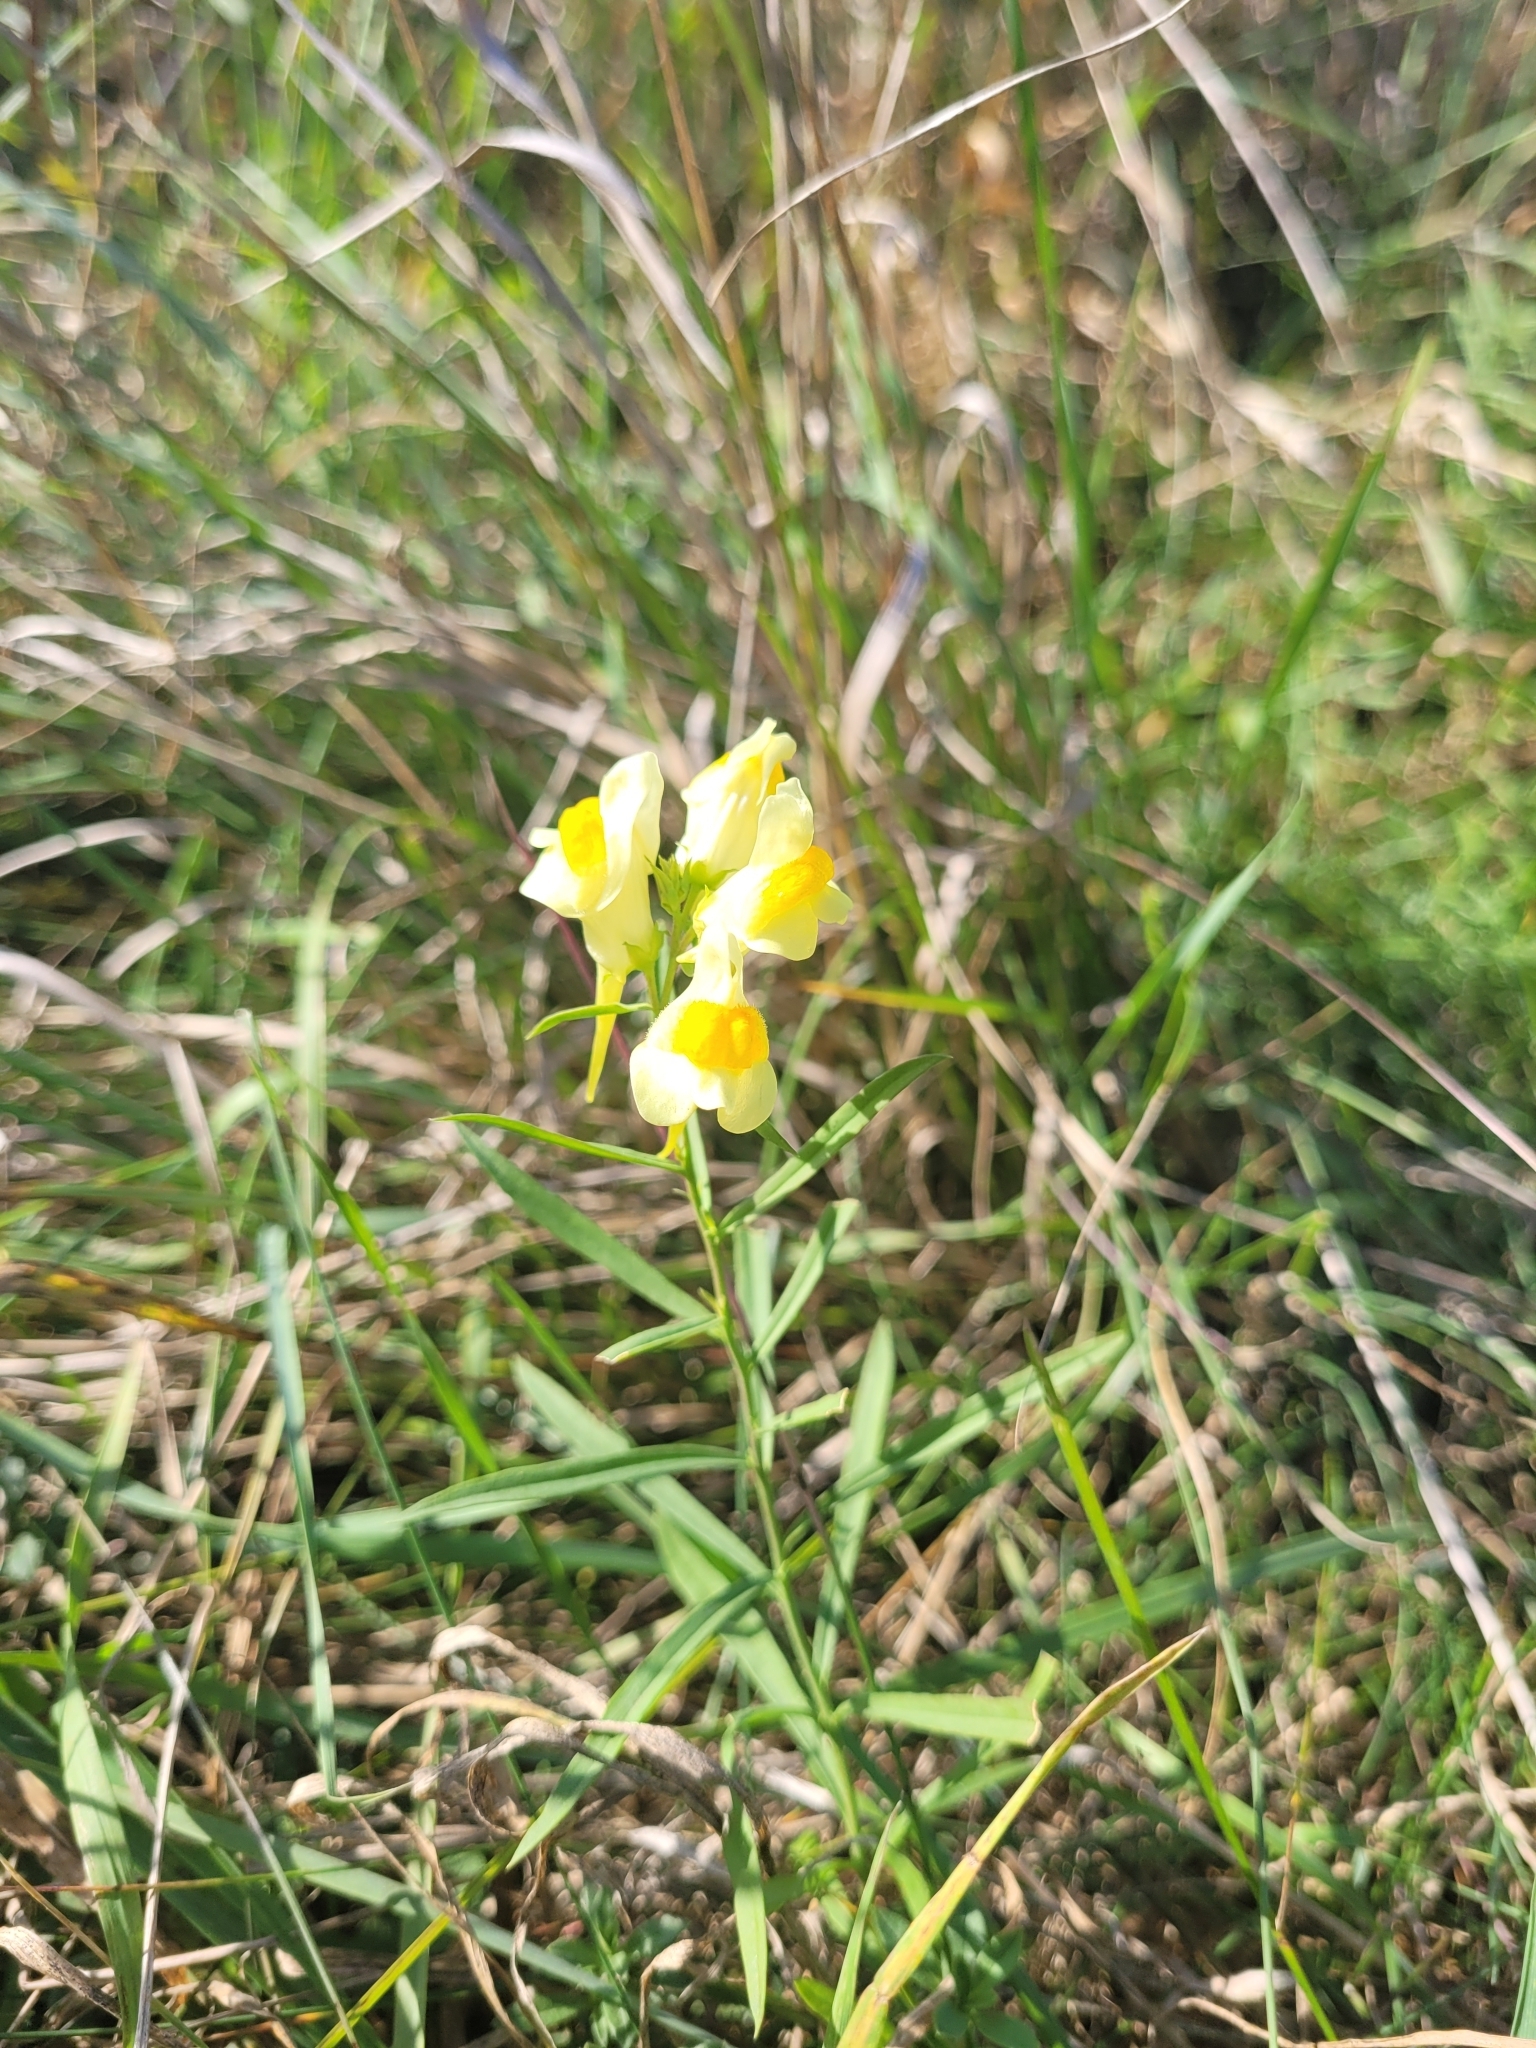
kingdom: Plantae
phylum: Tracheophyta
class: Magnoliopsida
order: Lamiales
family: Plantaginaceae
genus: Linaria
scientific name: Linaria vulgaris
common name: Butter and eggs
